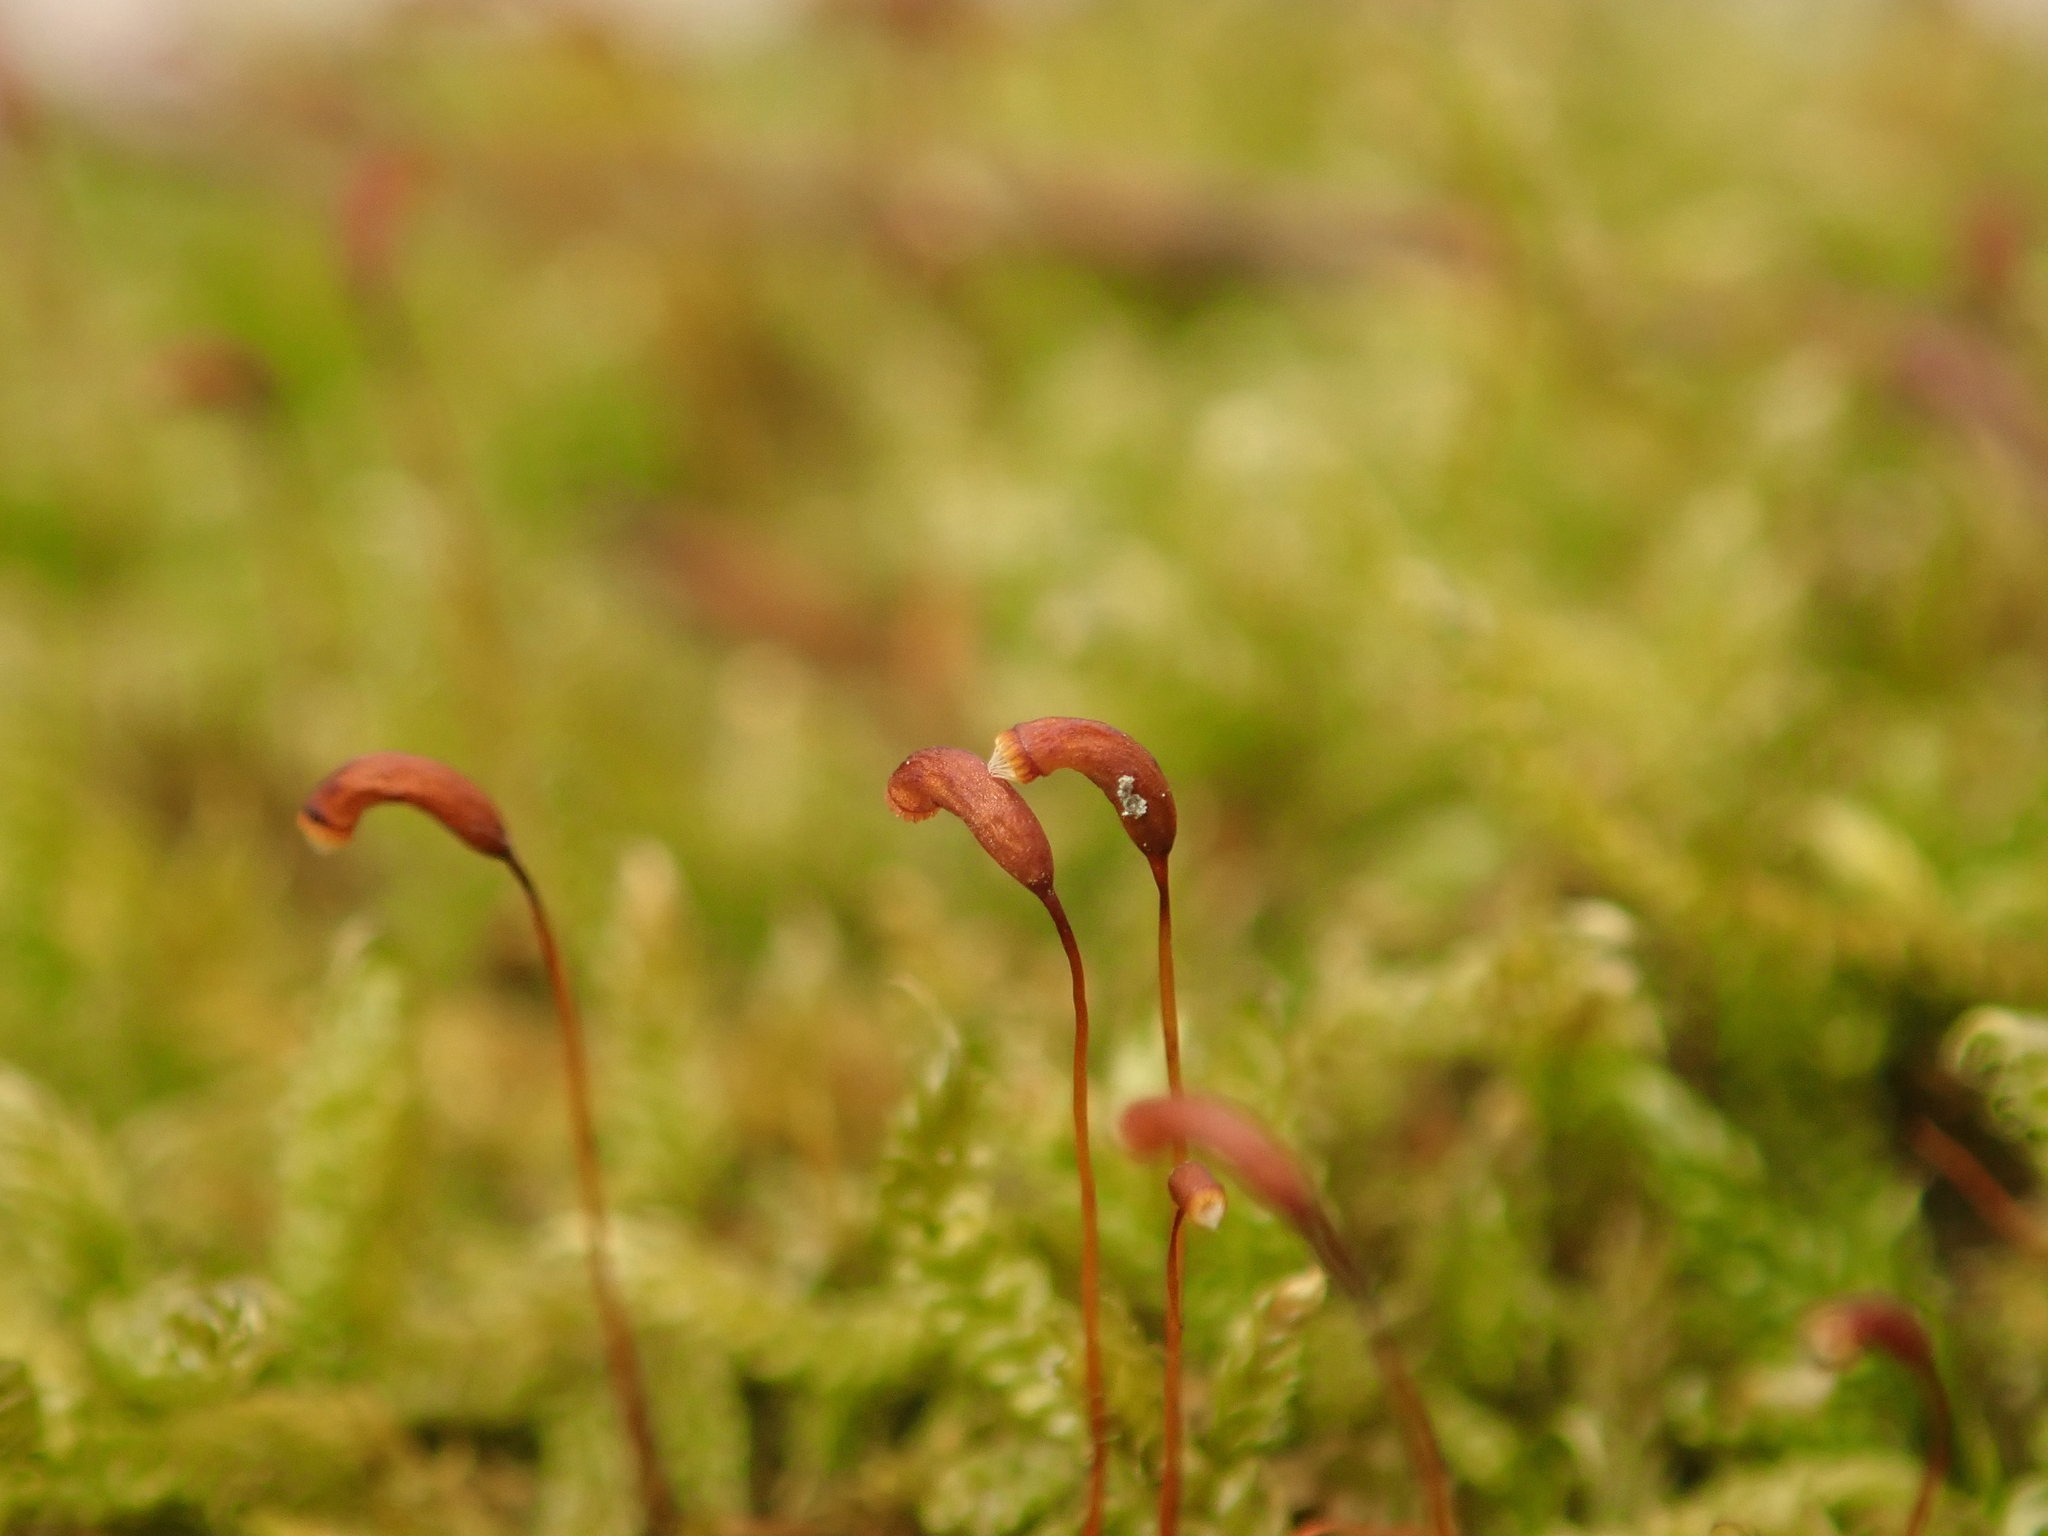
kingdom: Plantae
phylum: Bryophyta
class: Bryopsida
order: Hypnales
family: Hypnaceae
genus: Hypnum
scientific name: Hypnum cupressiforme
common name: Cypress-leaved plait-moss
